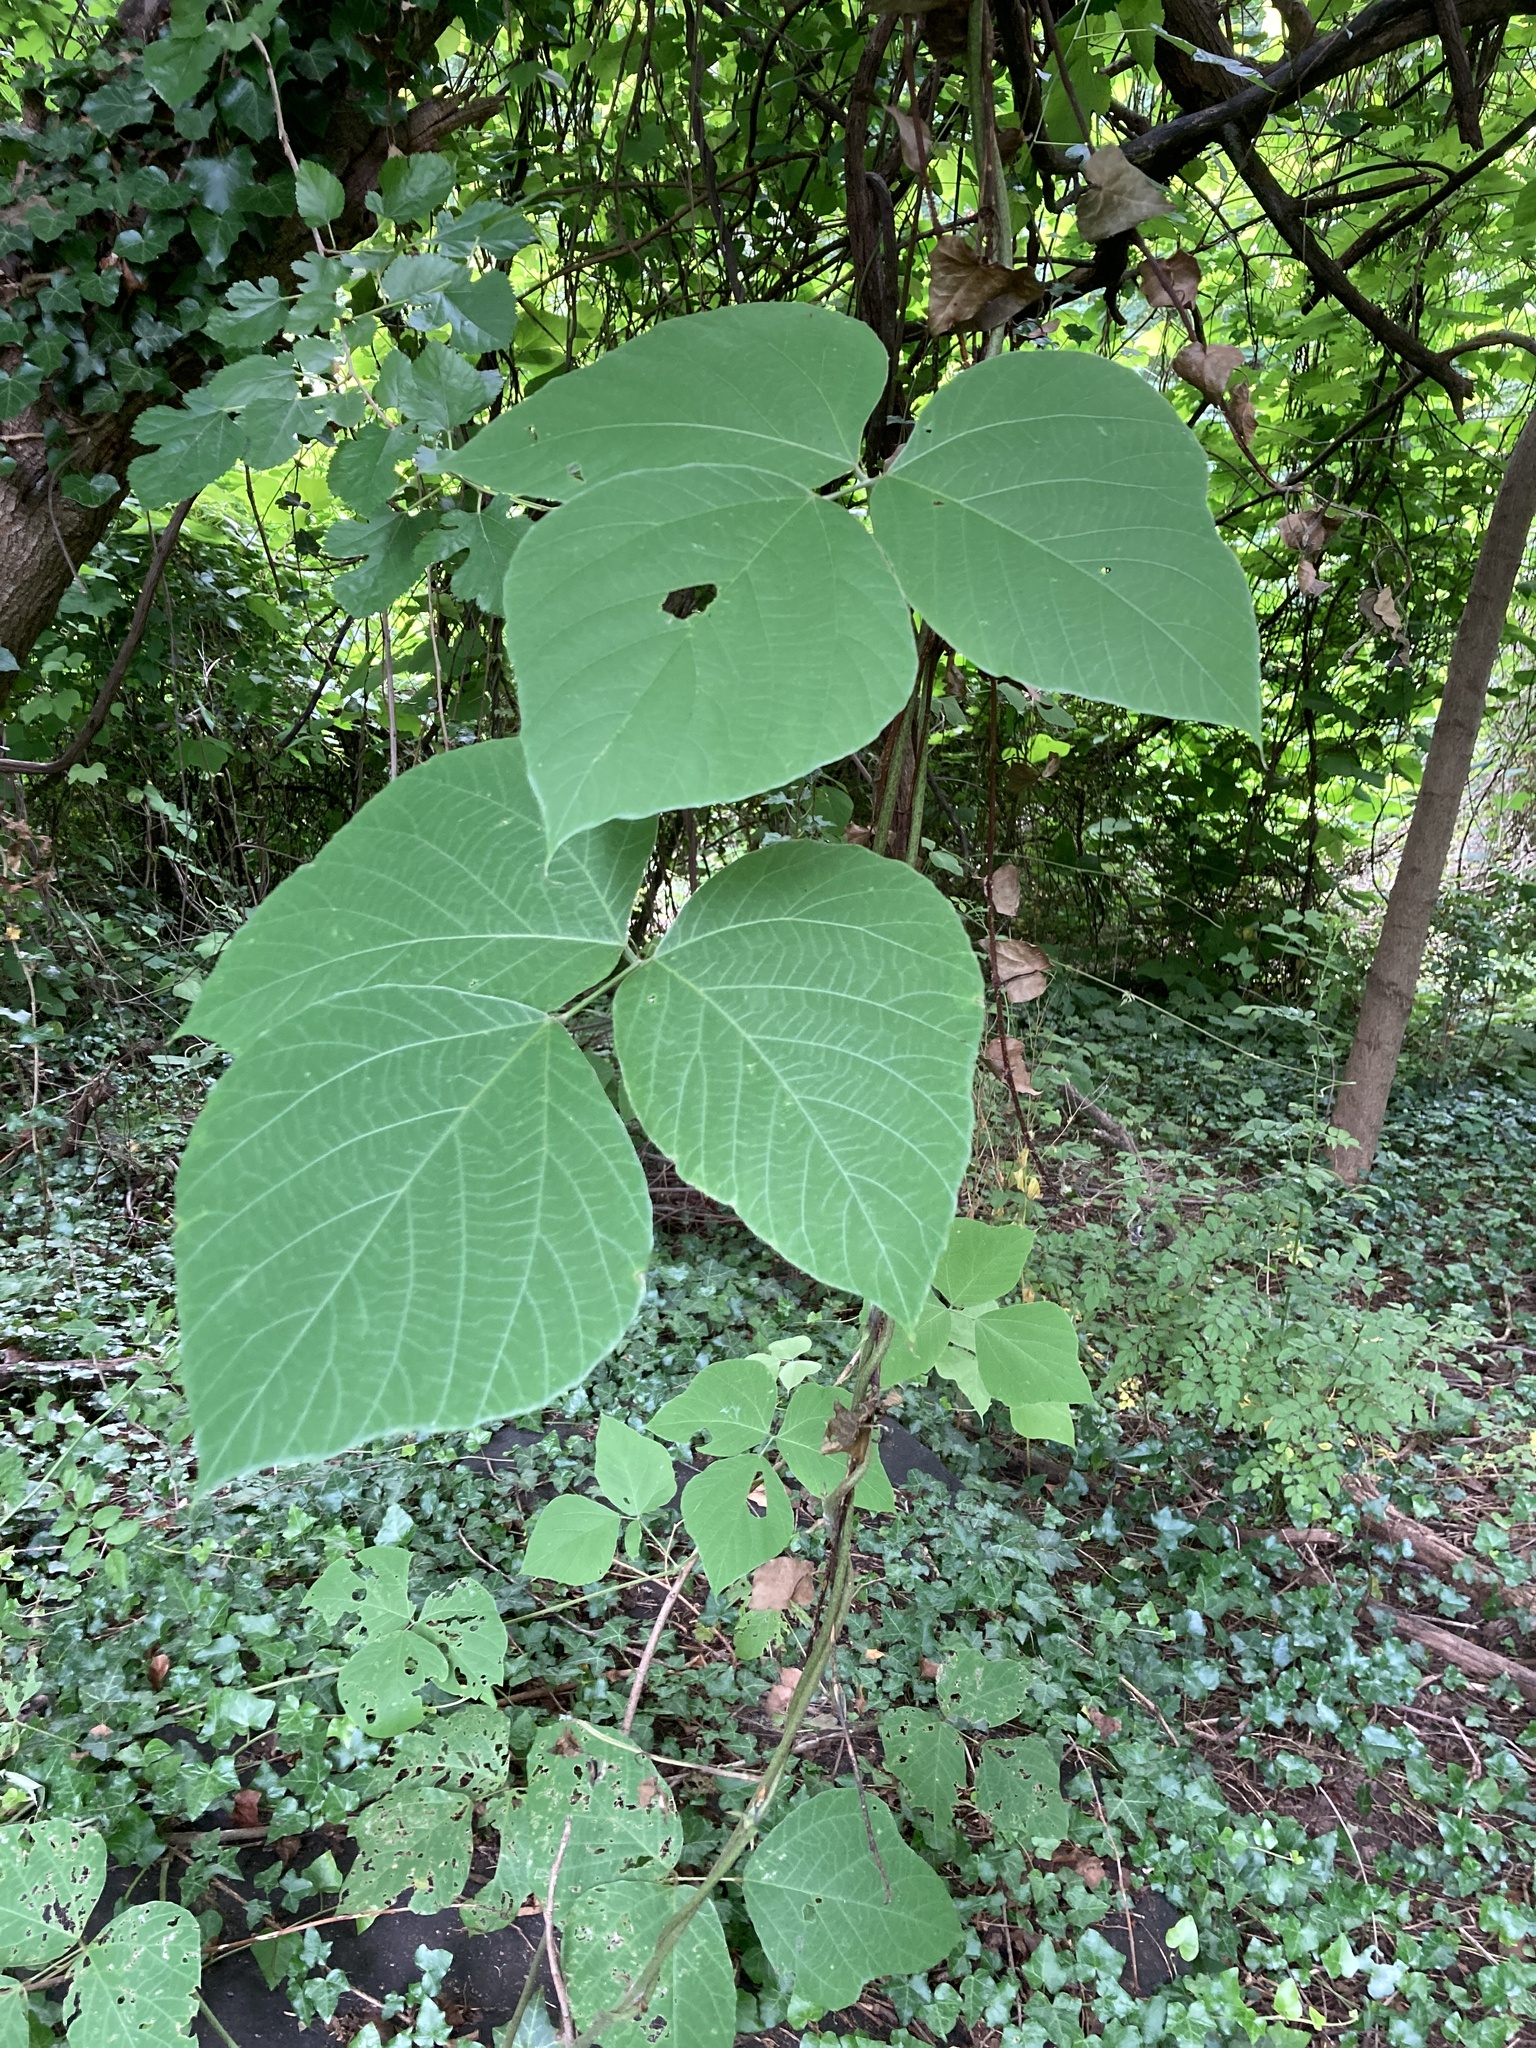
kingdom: Plantae
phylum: Tracheophyta
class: Magnoliopsida
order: Fabales
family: Fabaceae
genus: Pueraria
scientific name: Pueraria montana
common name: Kudzu
